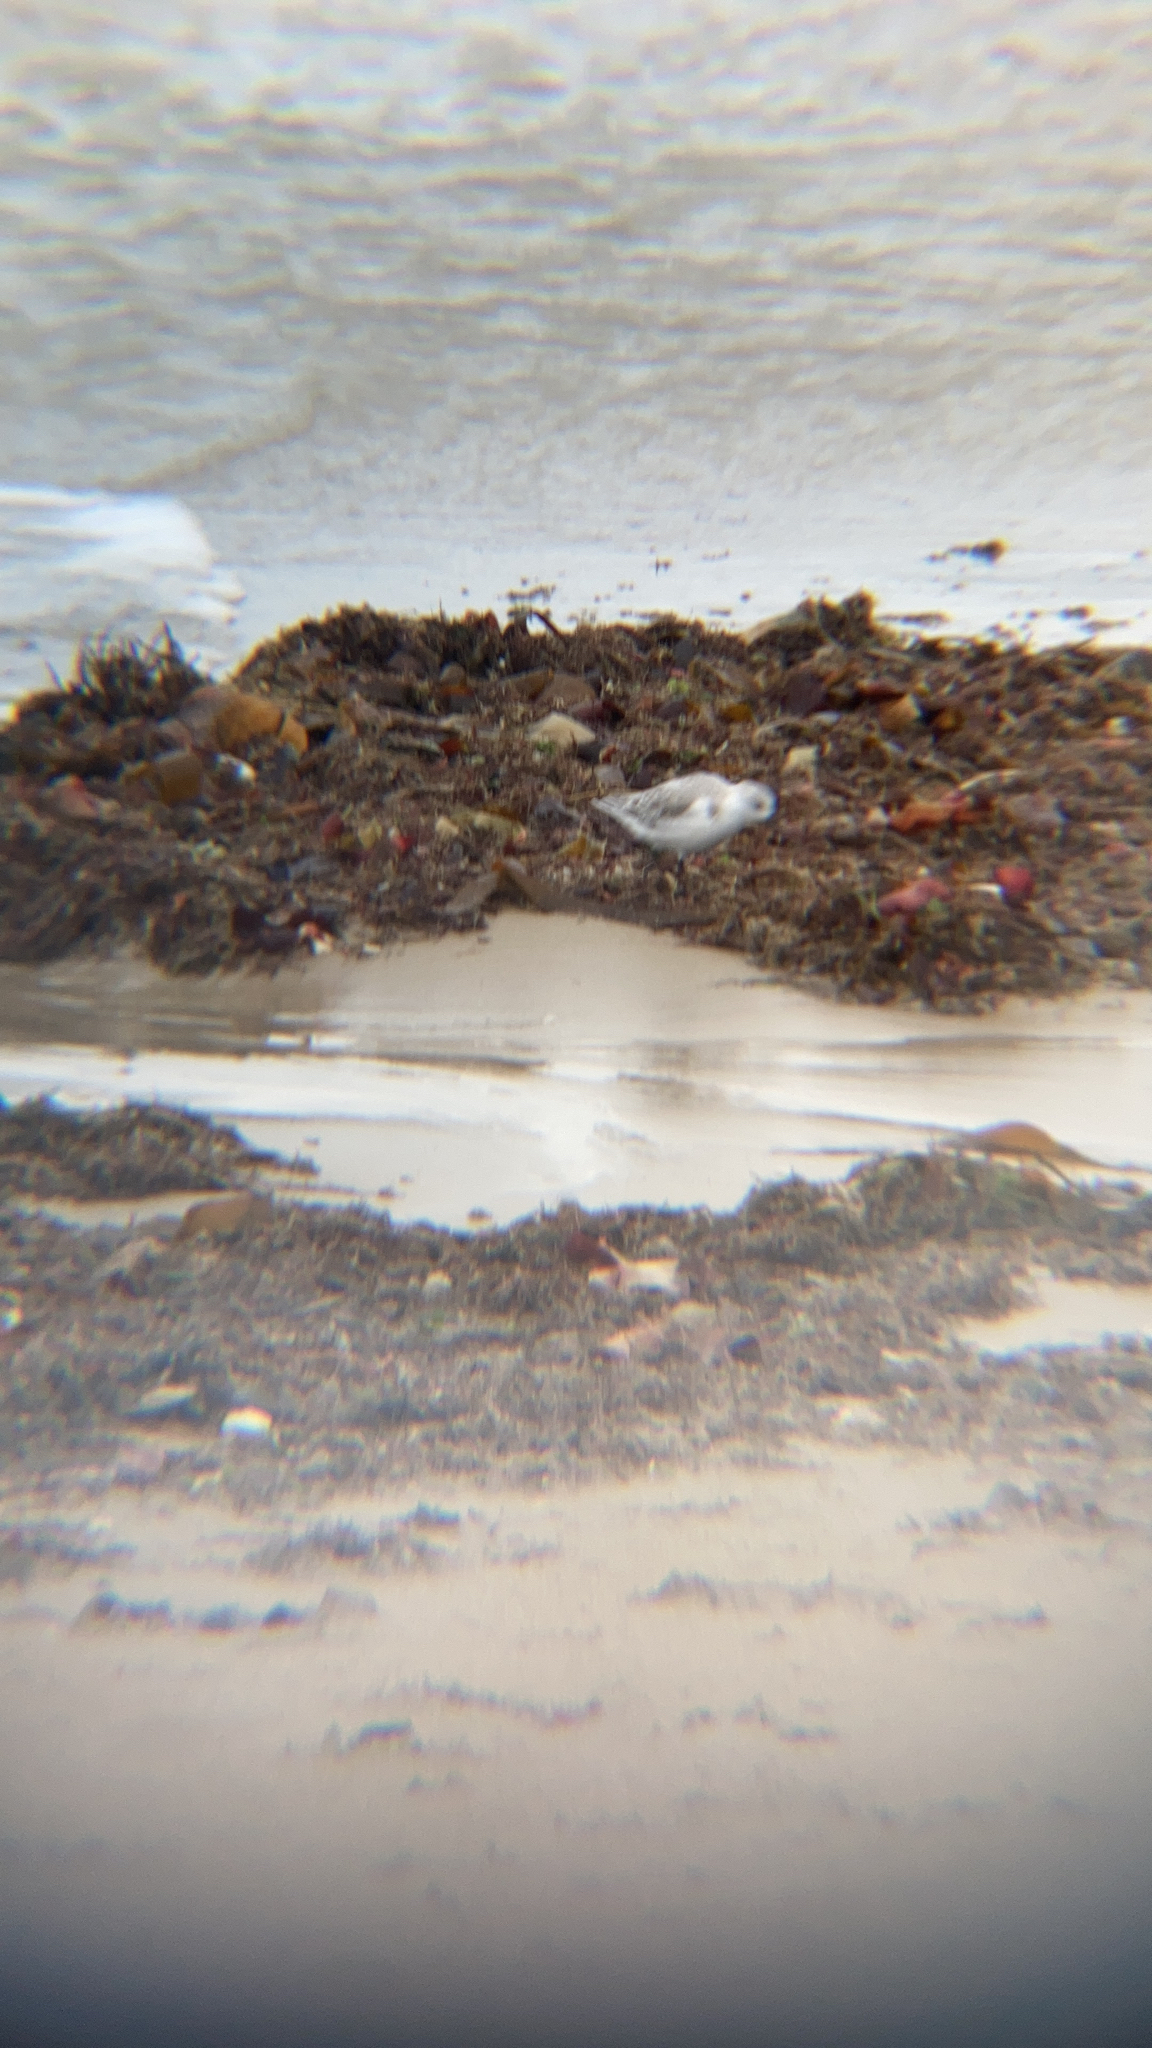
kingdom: Animalia
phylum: Chordata
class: Aves
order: Charadriiformes
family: Scolopacidae
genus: Calidris
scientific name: Calidris alba
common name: Sanderling
